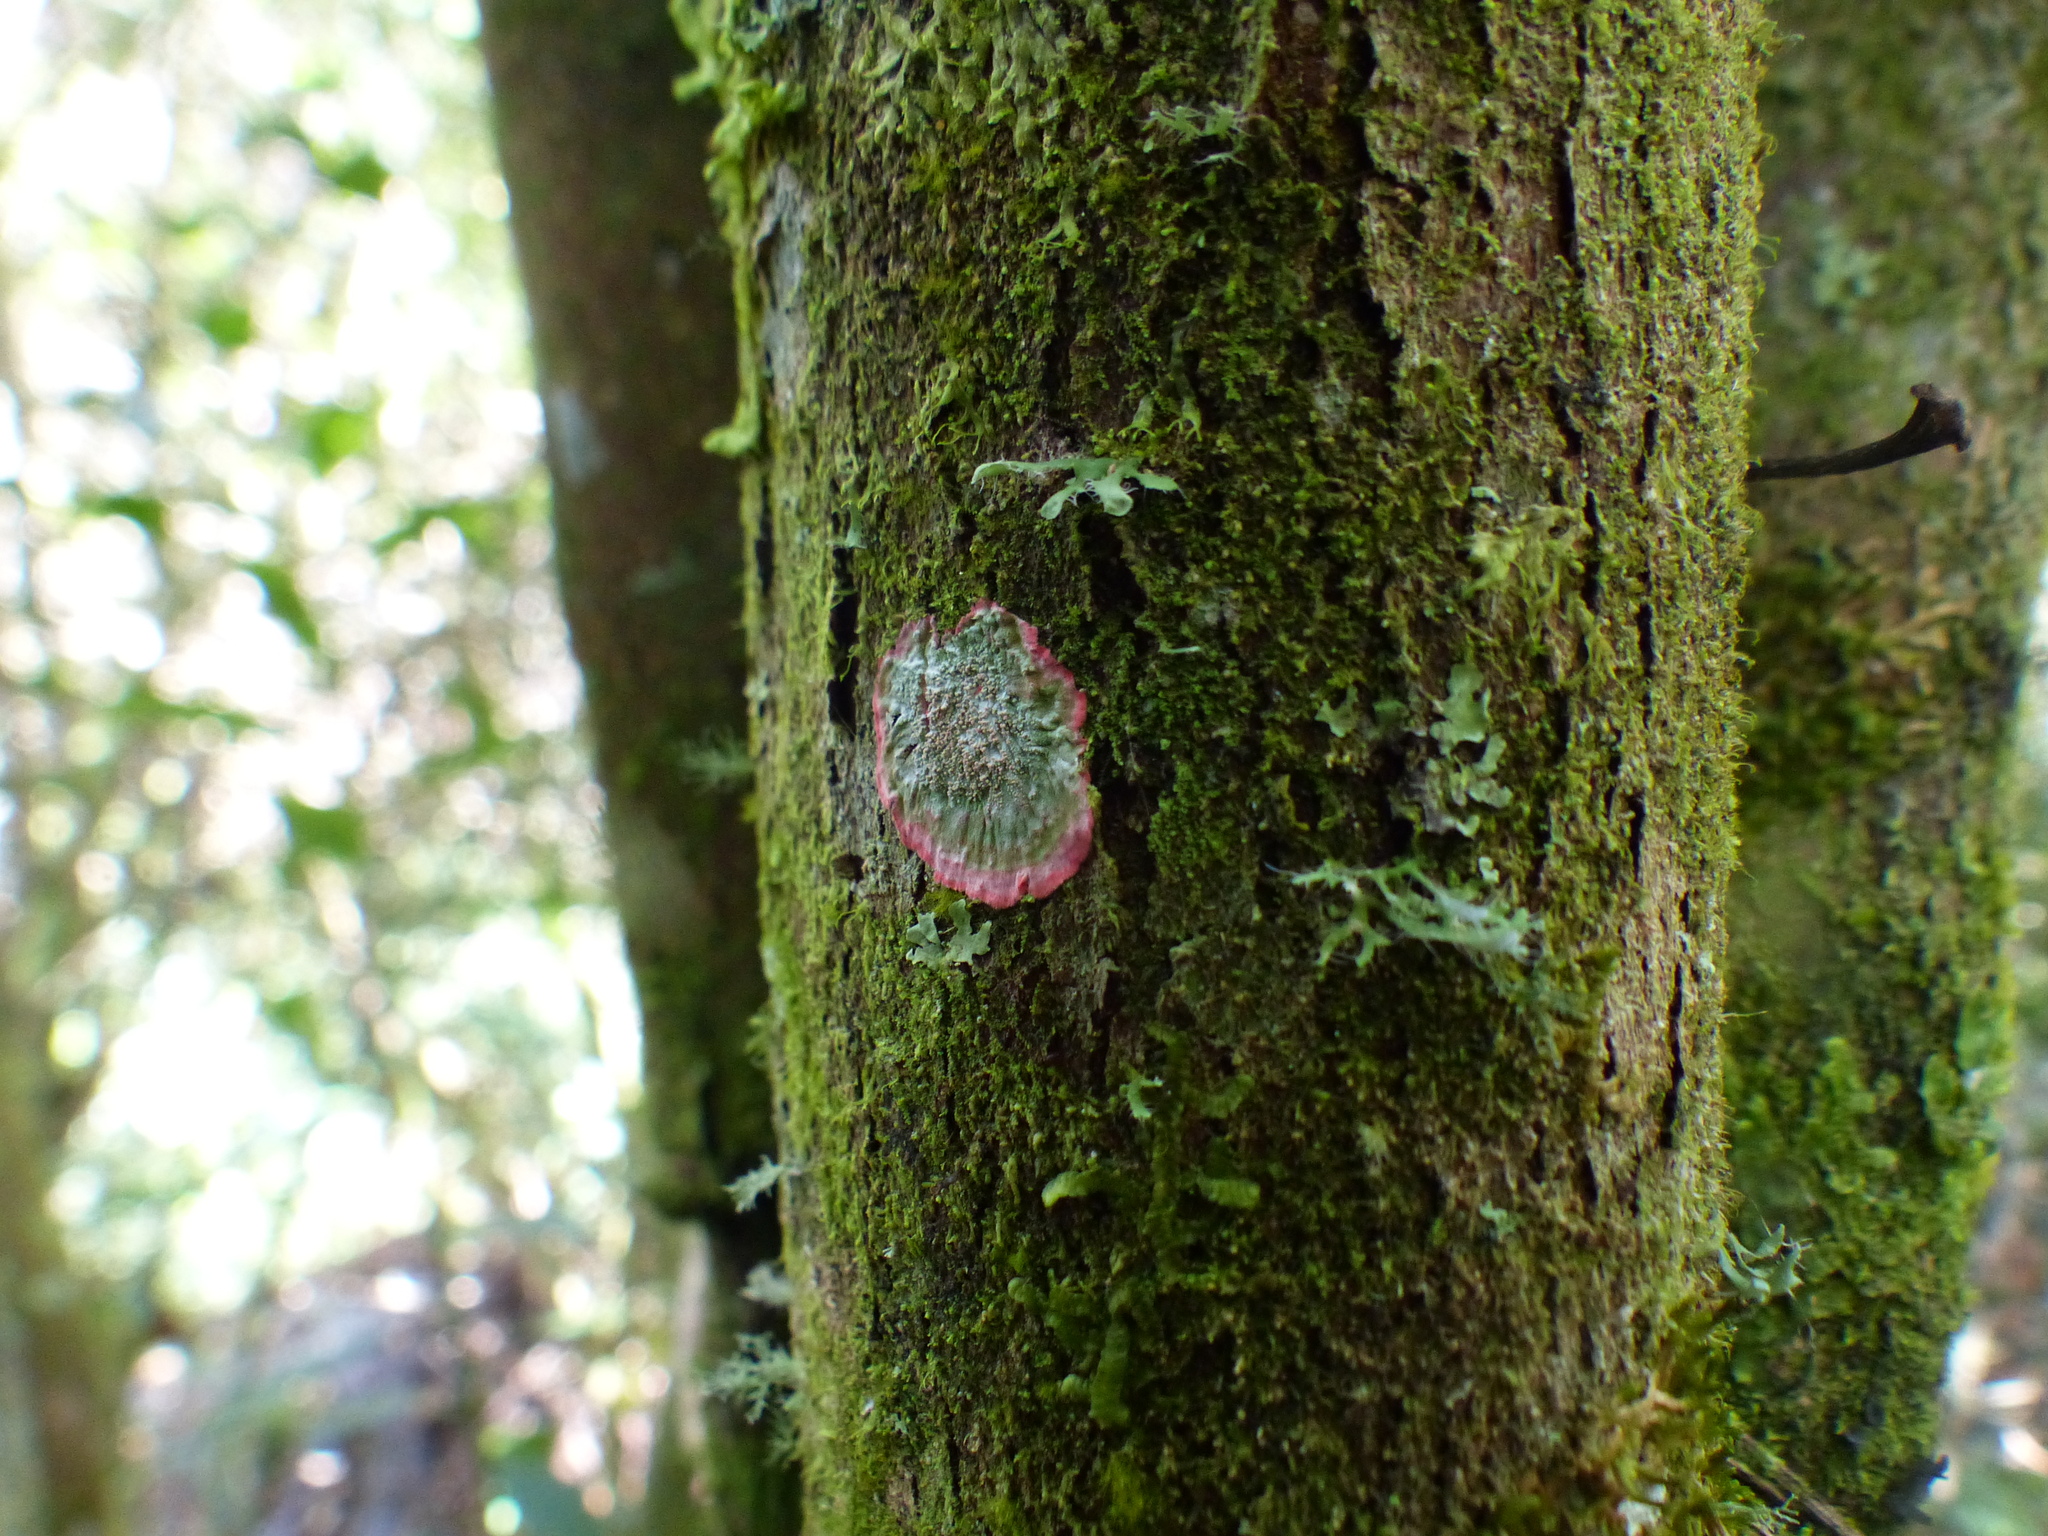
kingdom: Fungi
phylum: Ascomycota
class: Arthoniomycetes
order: Arthoniales
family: Arthoniaceae
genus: Herpothallon
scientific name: Herpothallon rubrocinctum
